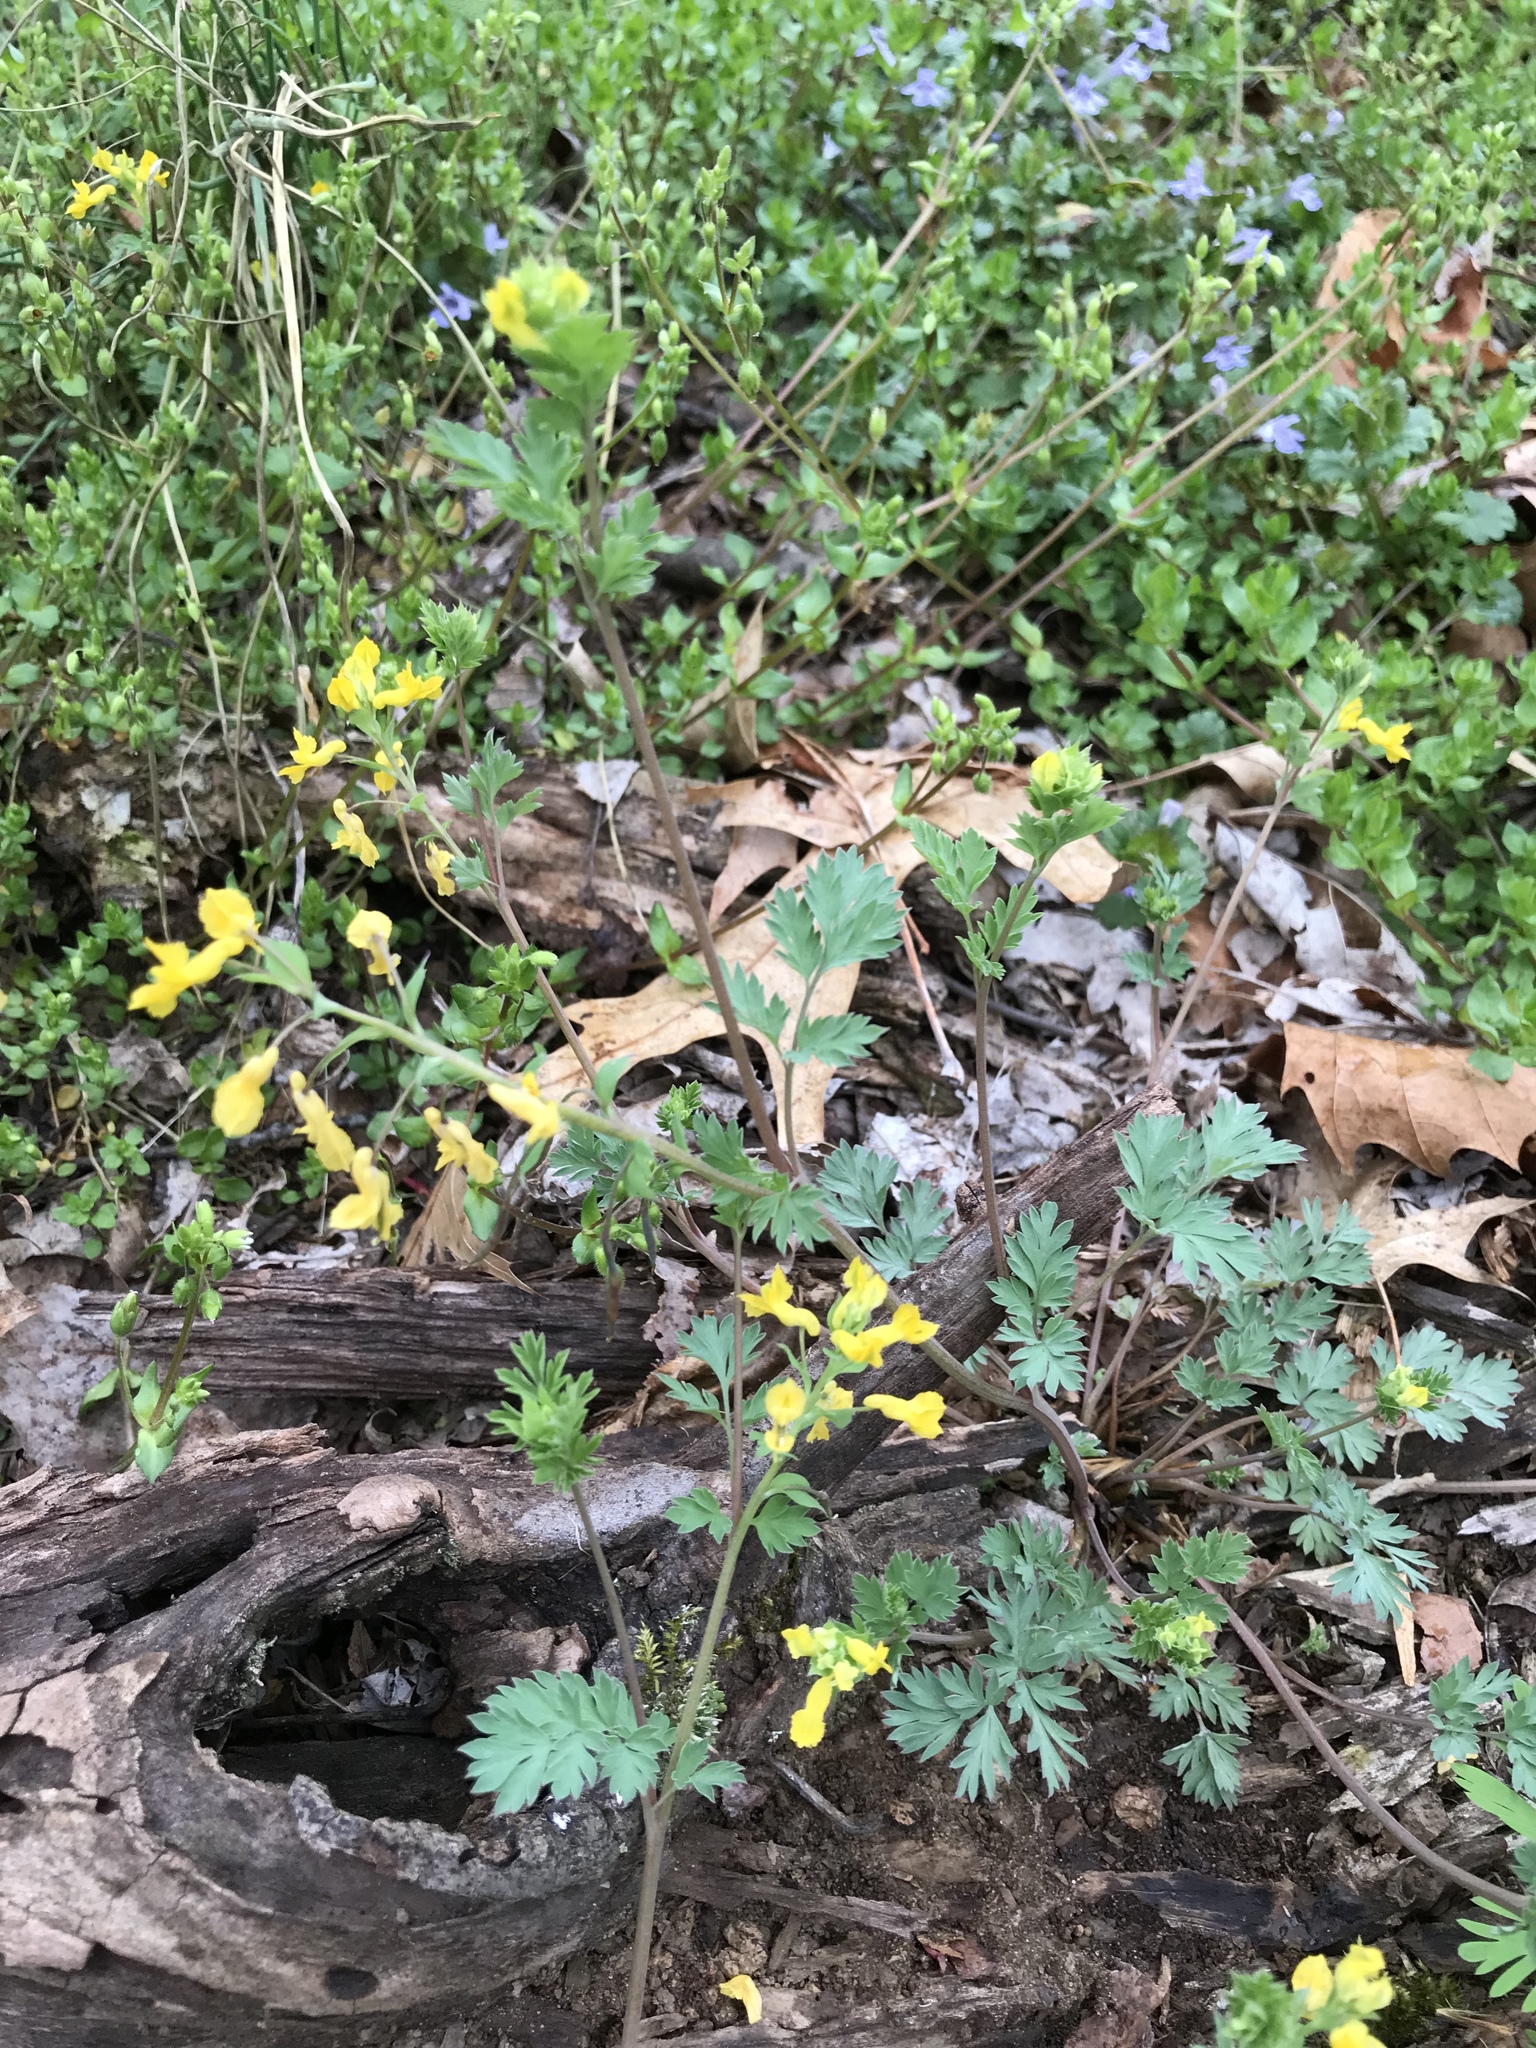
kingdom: Plantae
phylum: Tracheophyta
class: Magnoliopsida
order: Ranunculales
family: Papaveraceae
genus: Corydalis
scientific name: Corydalis flavula
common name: Yellow corydalis
